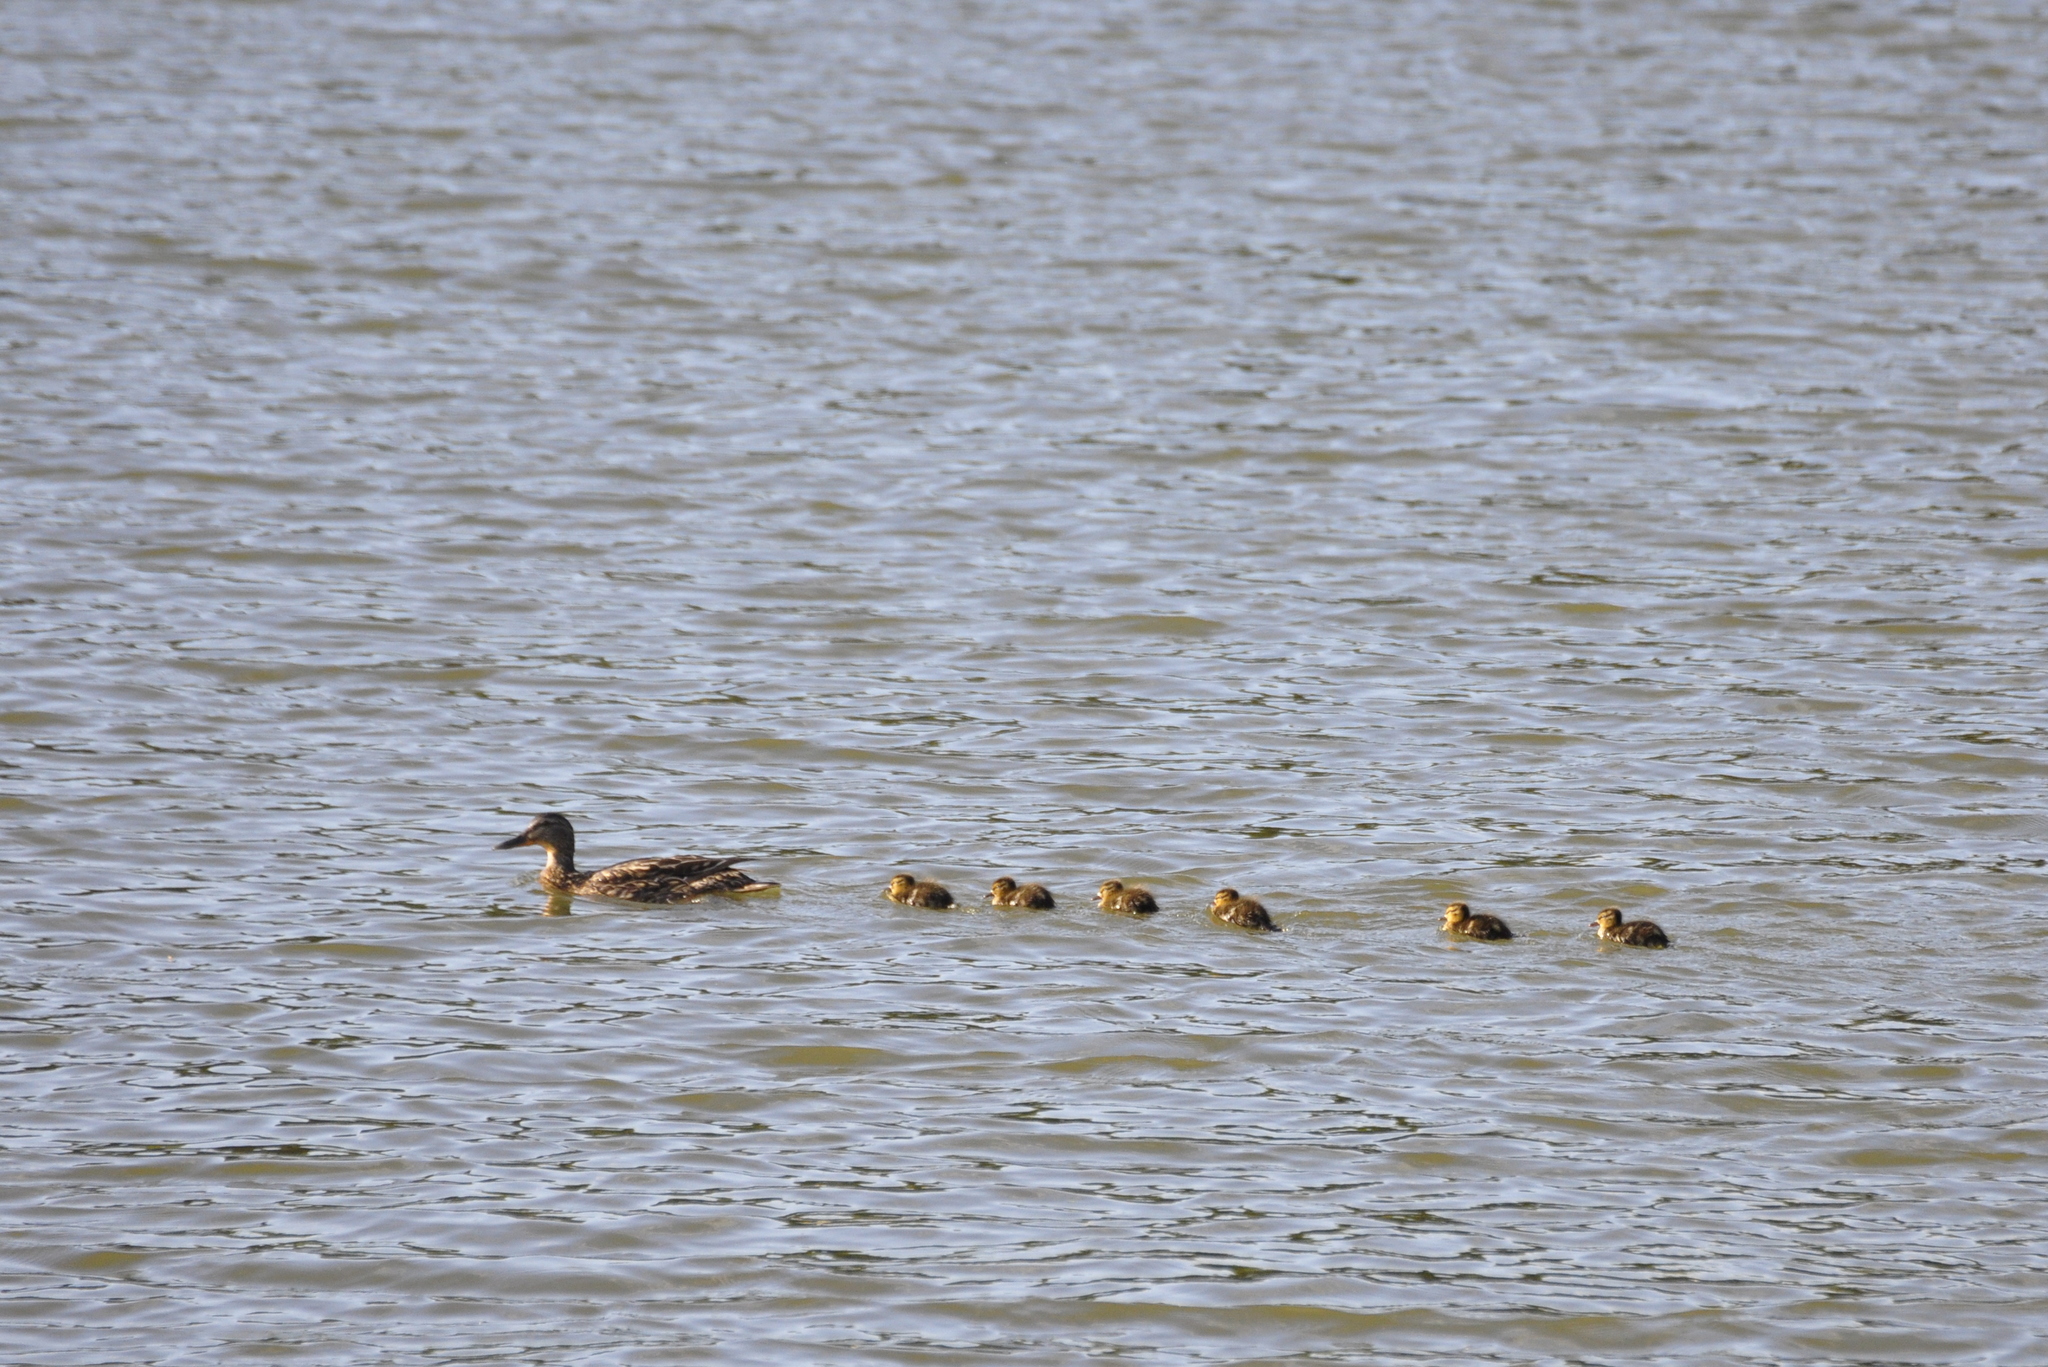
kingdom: Animalia
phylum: Chordata
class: Aves
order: Anseriformes
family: Anatidae
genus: Anas
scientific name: Anas platyrhynchos
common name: Mallard
